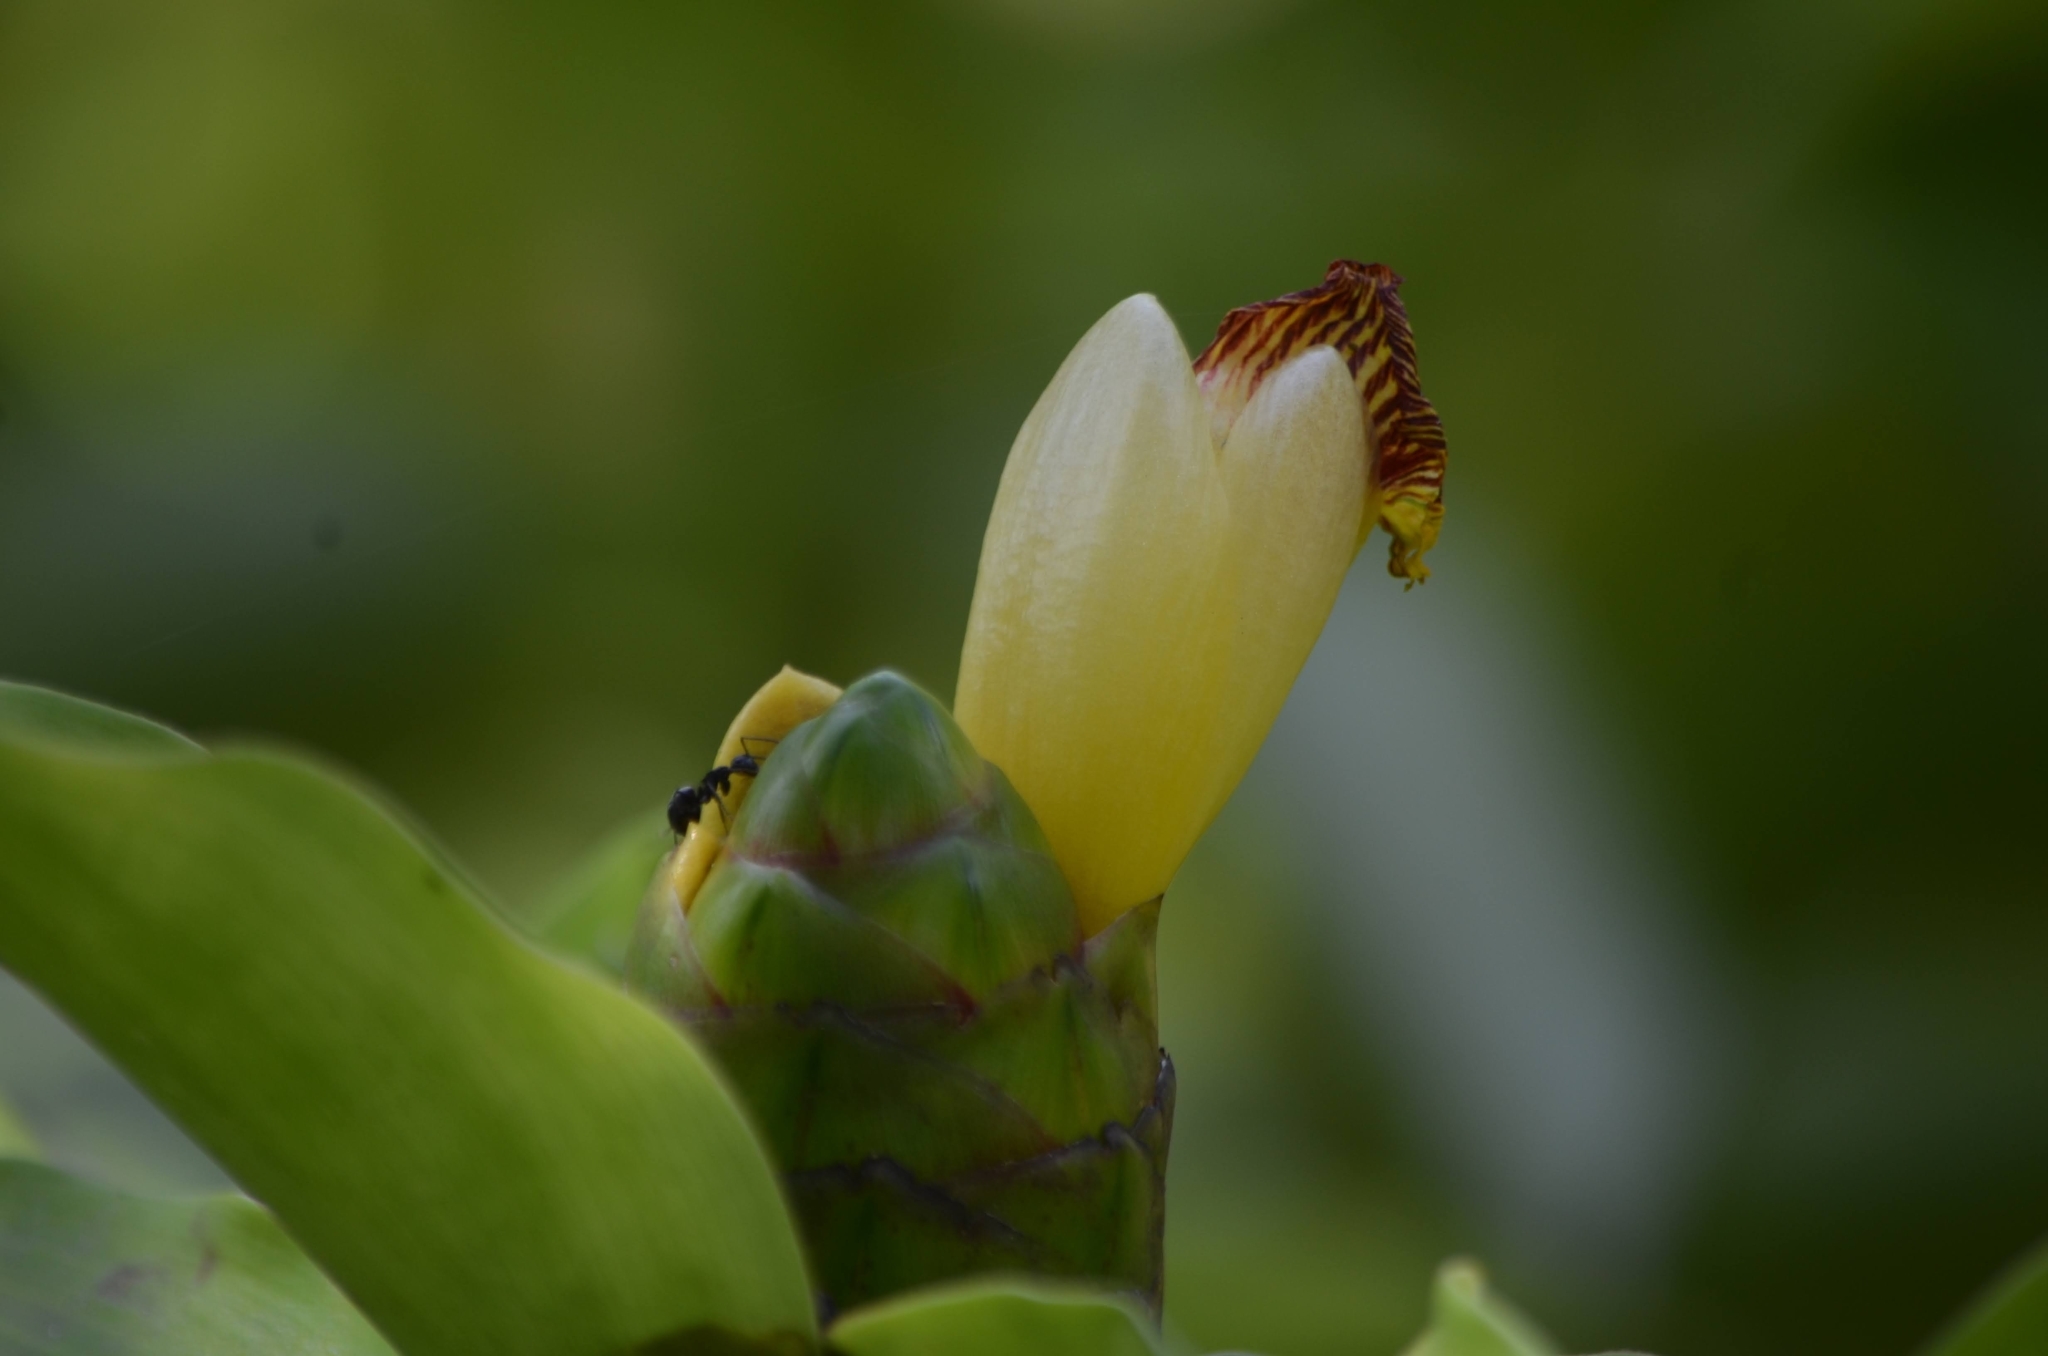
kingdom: Plantae
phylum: Tracheophyta
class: Liliopsida
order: Zingiberales
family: Costaceae
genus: Costus
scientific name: Costus pictus
